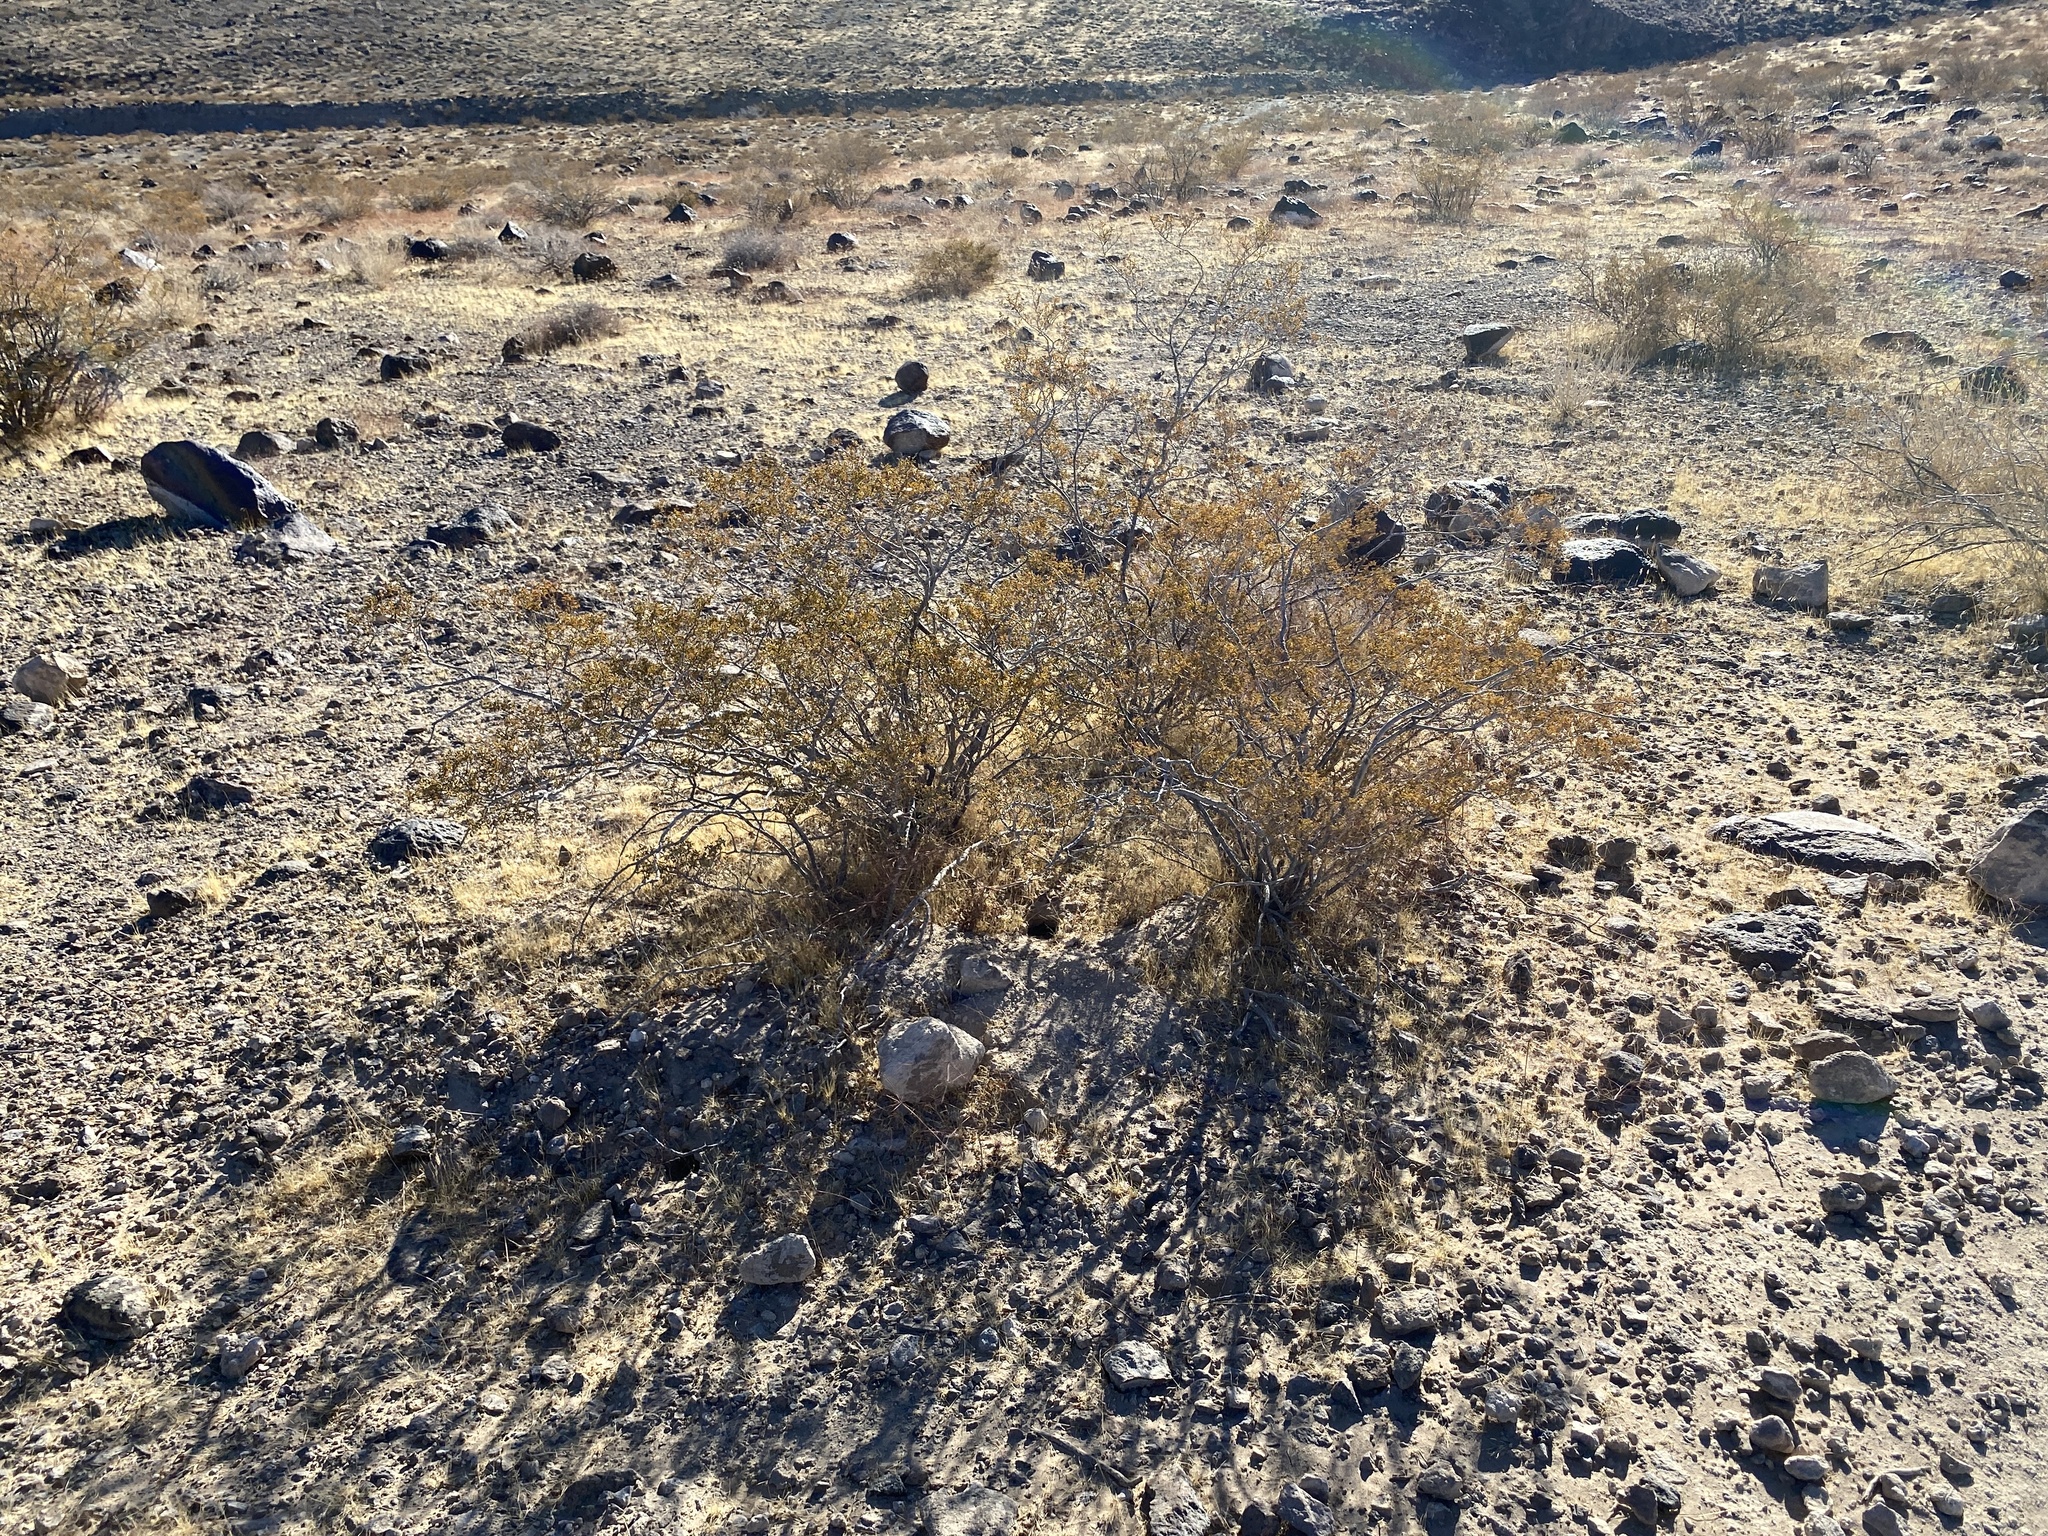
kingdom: Plantae
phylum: Tracheophyta
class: Magnoliopsida
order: Zygophyllales
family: Zygophyllaceae
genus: Larrea
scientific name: Larrea tridentata
